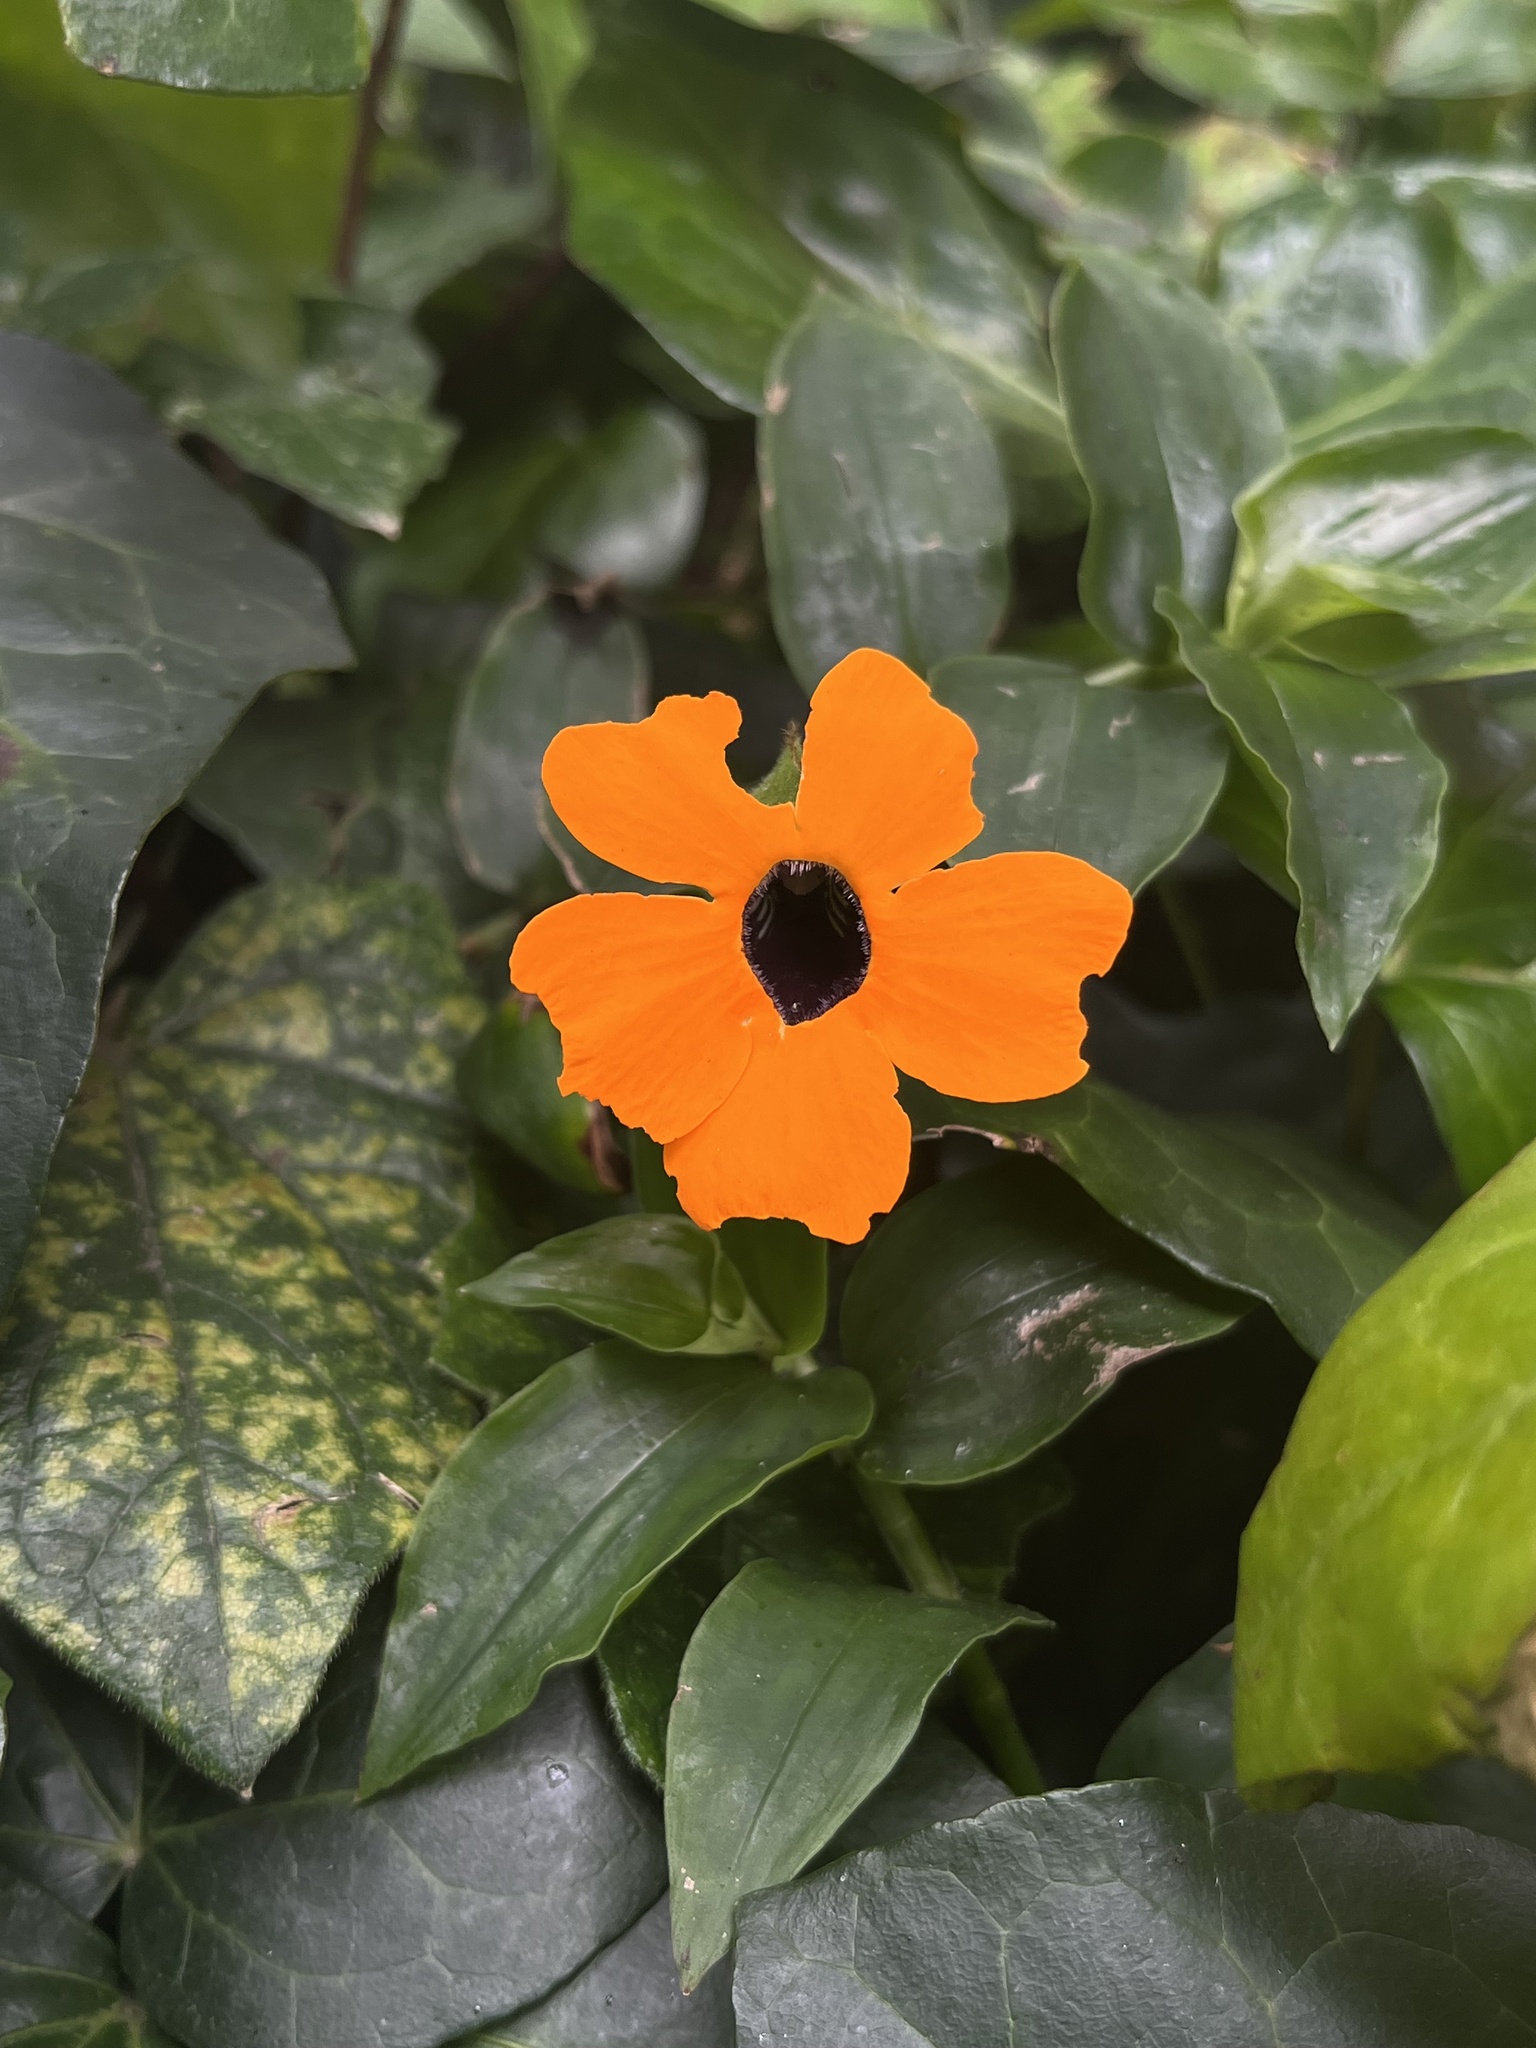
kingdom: Plantae
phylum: Tracheophyta
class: Magnoliopsida
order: Lamiales
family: Acanthaceae
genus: Thunbergia
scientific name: Thunbergia alata
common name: Blackeyed susan vine
